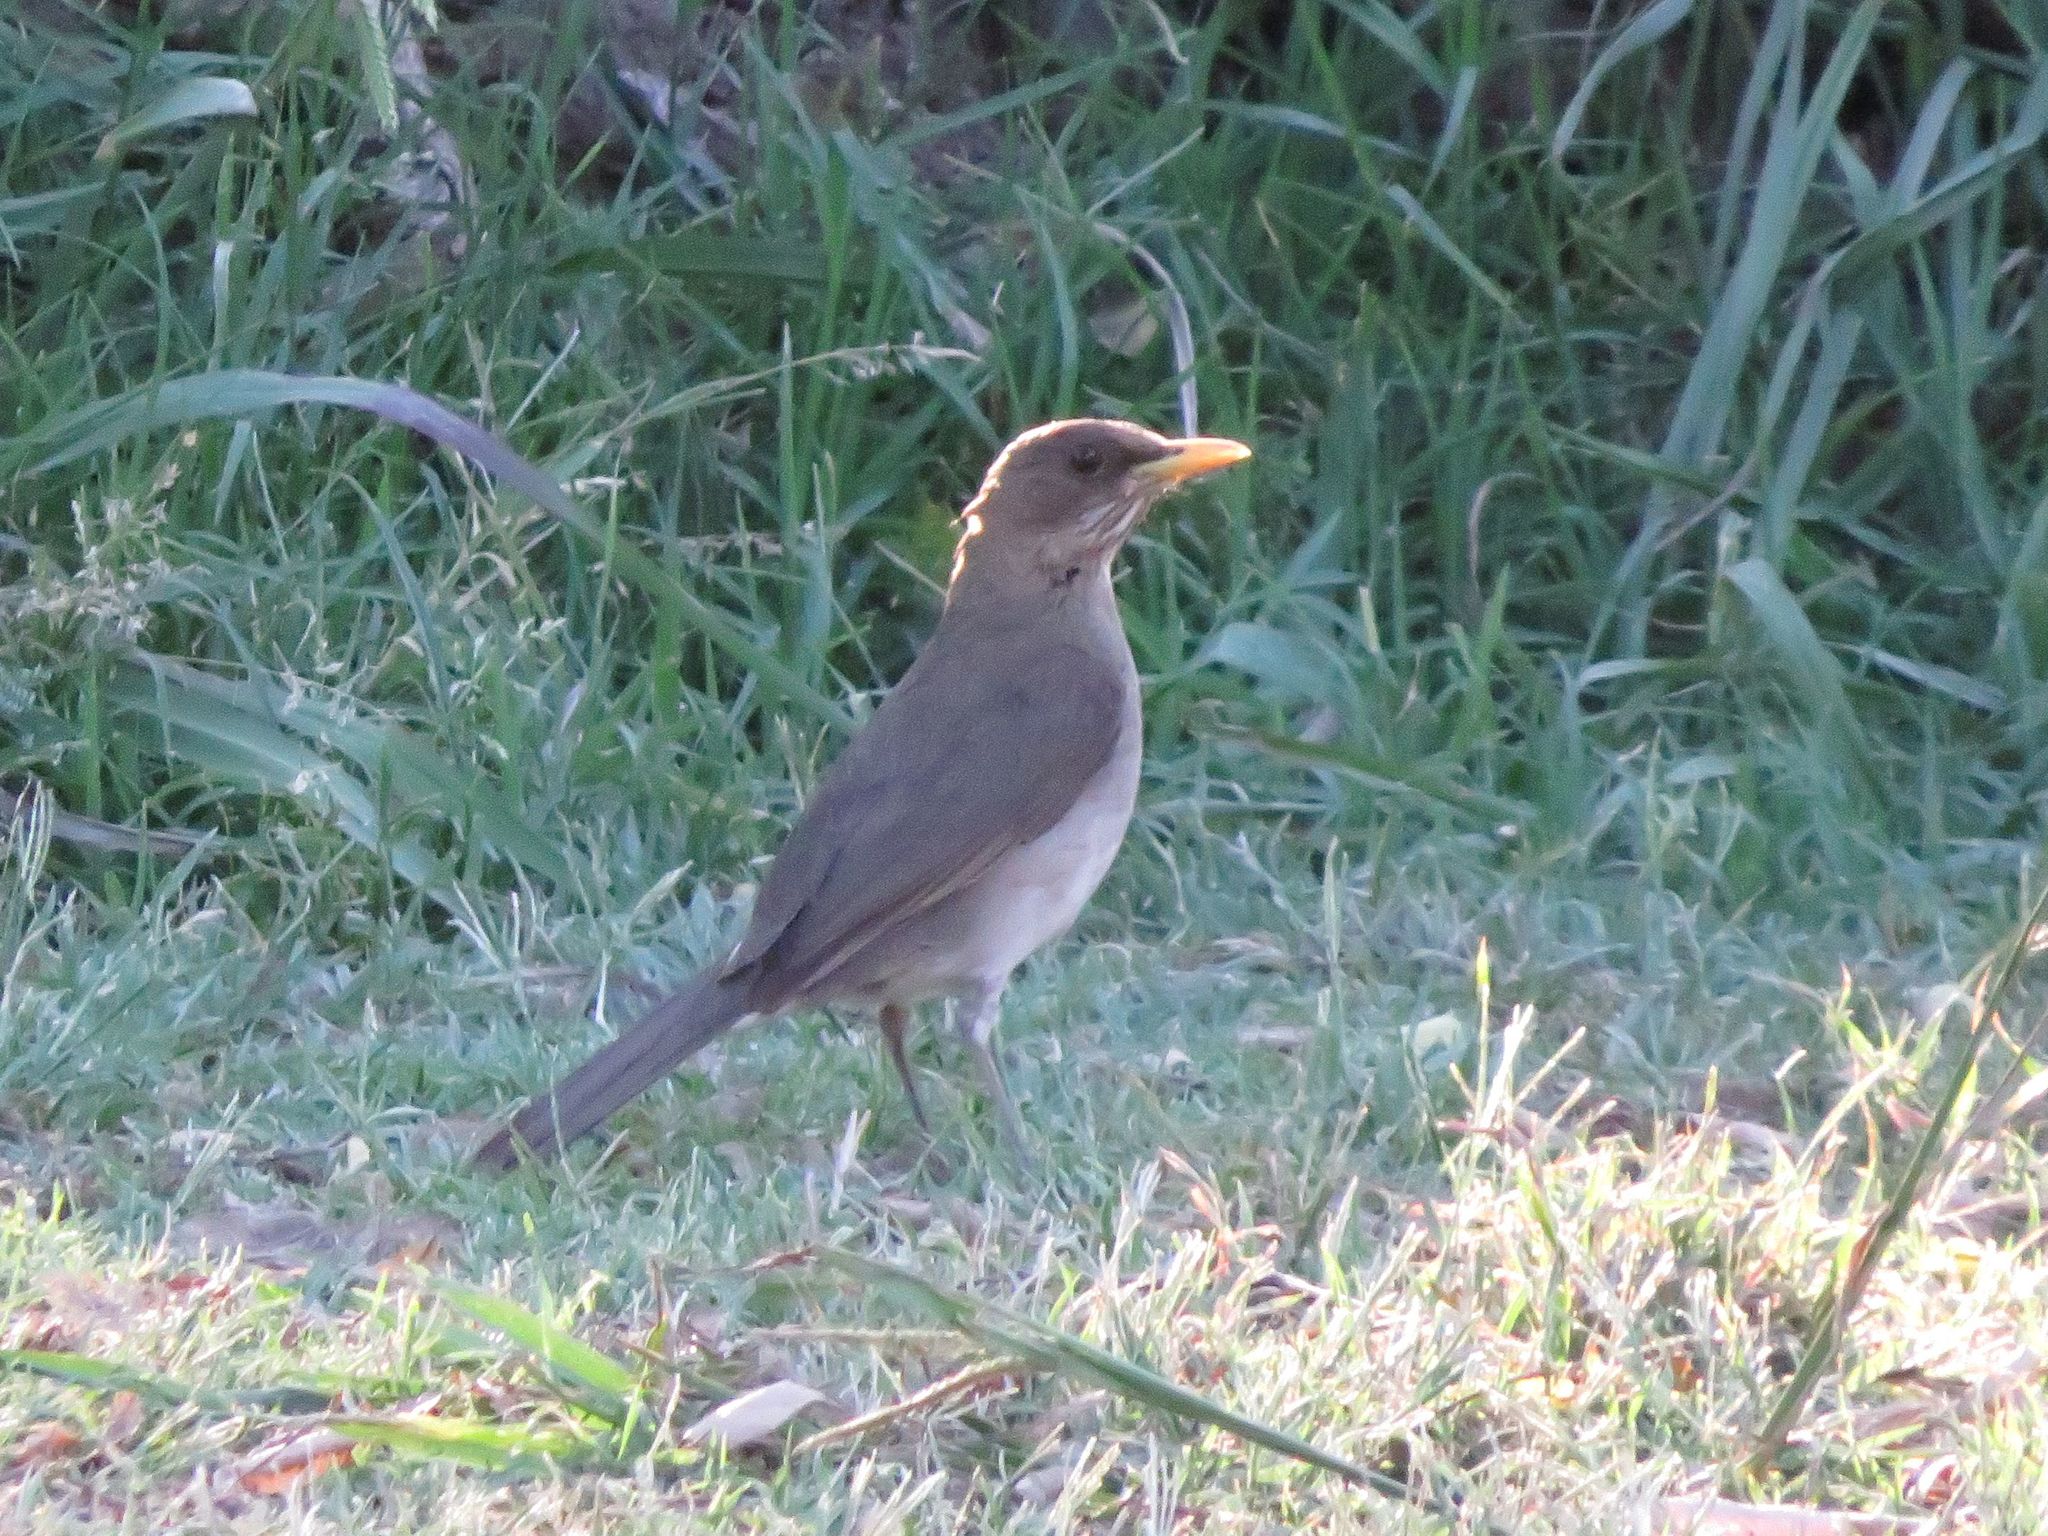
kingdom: Animalia
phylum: Chordata
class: Aves
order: Passeriformes
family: Turdidae
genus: Turdus
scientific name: Turdus amaurochalinus
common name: Creamy-bellied thrush
